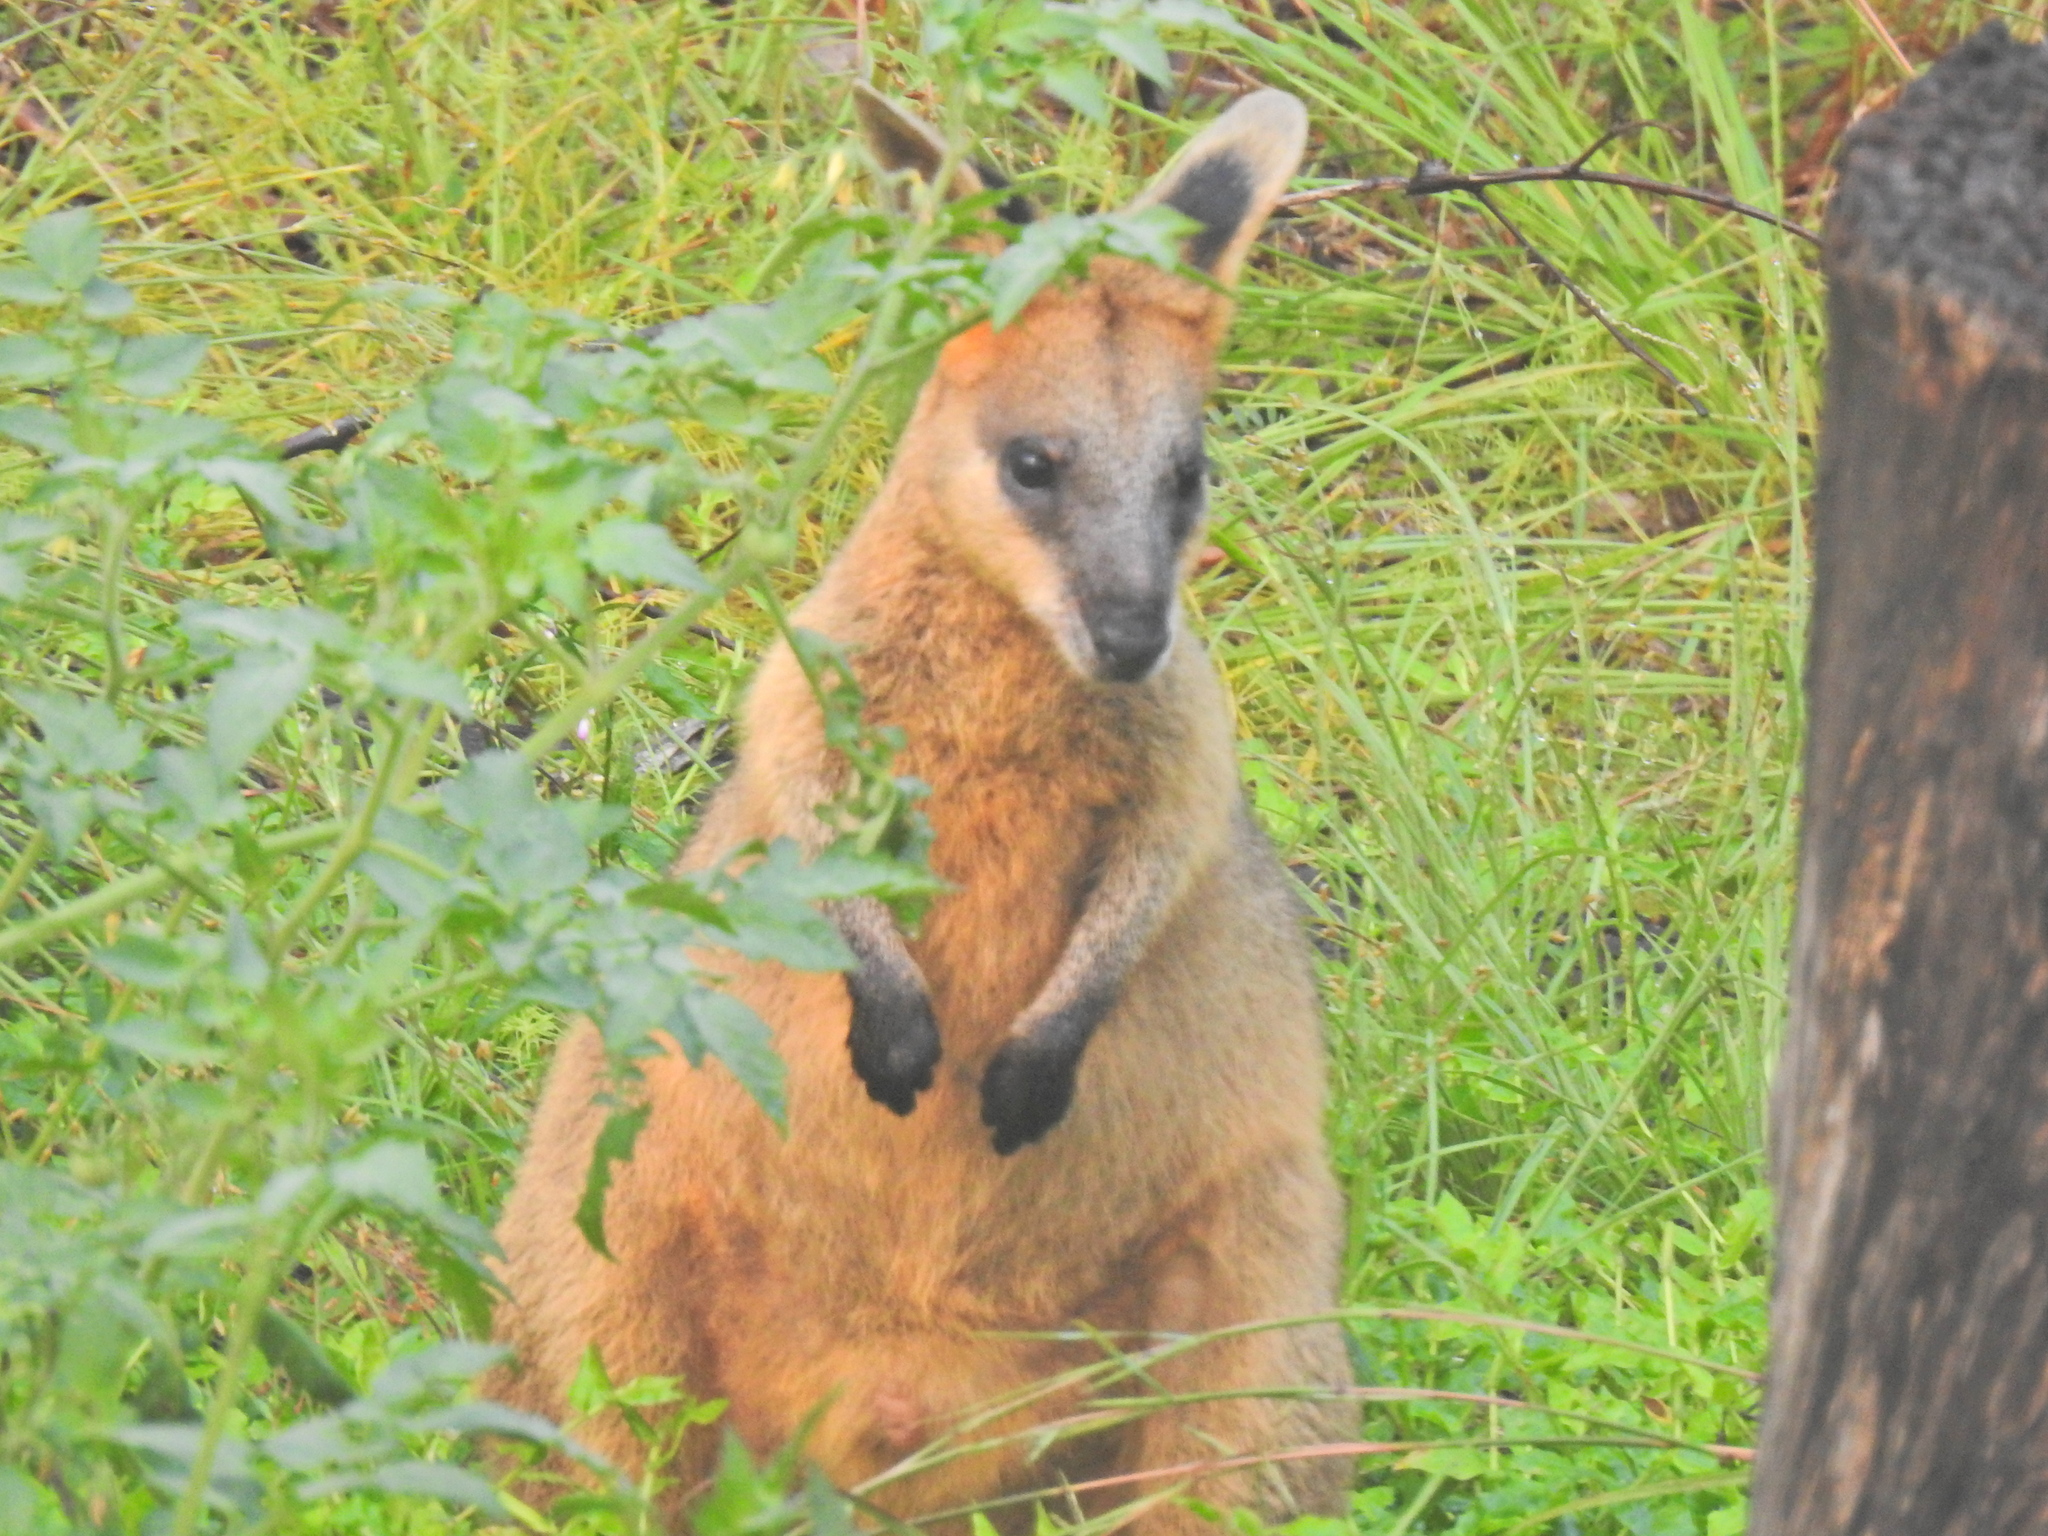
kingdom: Animalia
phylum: Chordata
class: Mammalia
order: Diprotodontia
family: Macropodidae
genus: Wallabia
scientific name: Wallabia bicolor
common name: Swamp wallaby
